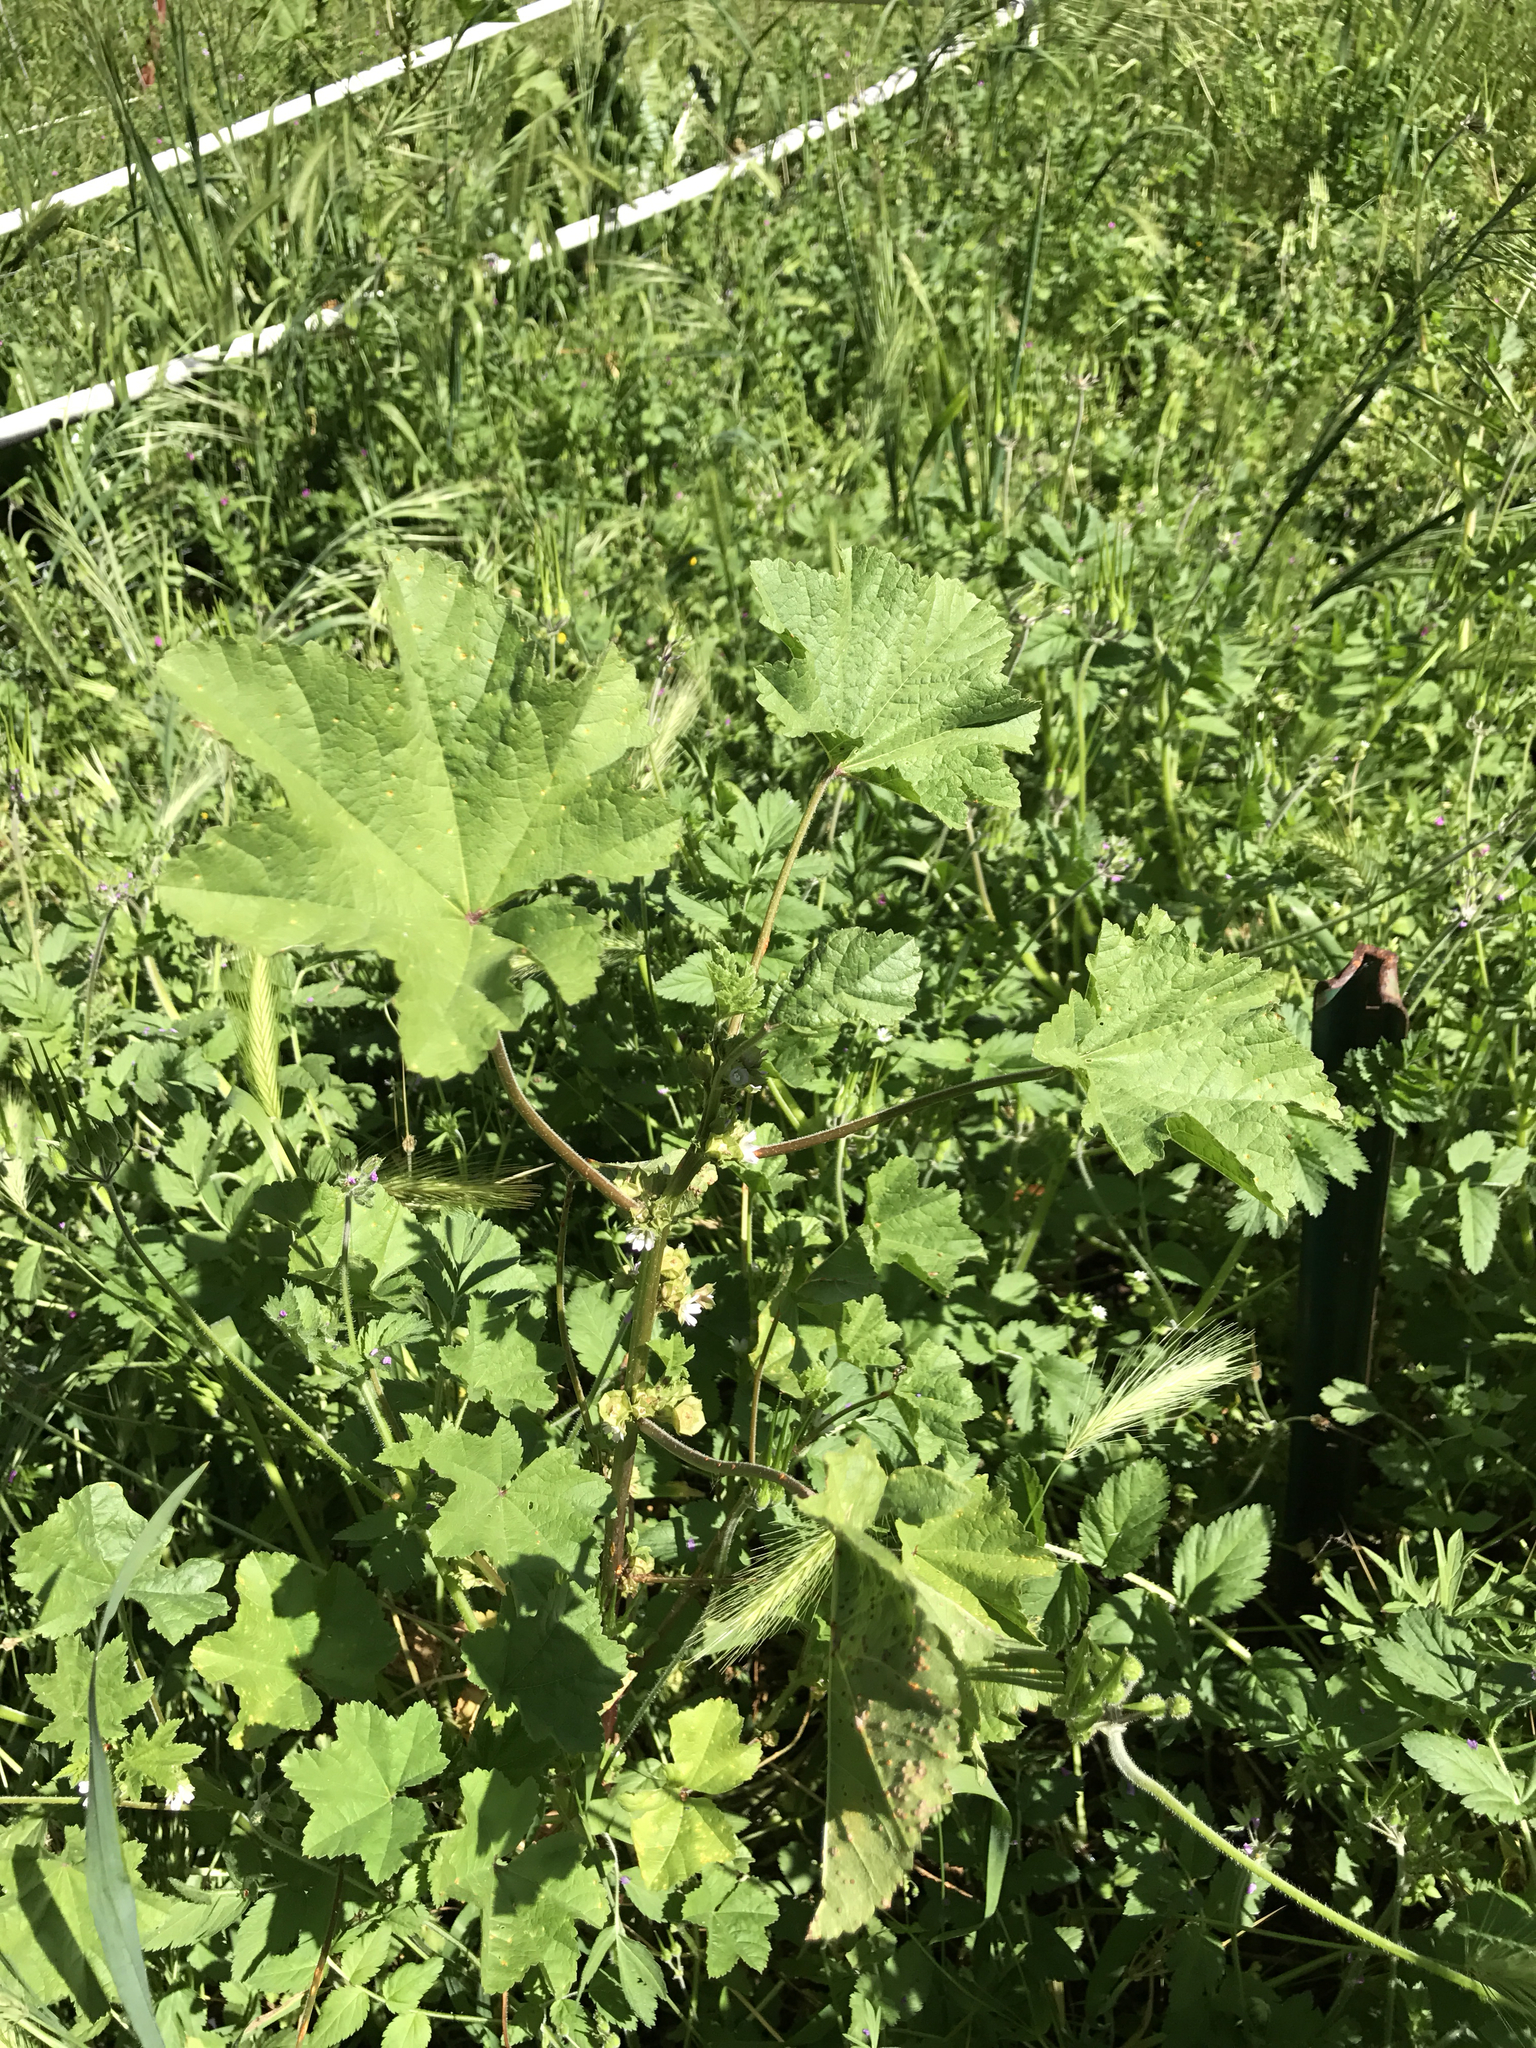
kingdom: Plantae
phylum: Tracheophyta
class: Magnoliopsida
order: Malvales
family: Malvaceae
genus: Malva
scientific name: Malva parviflora
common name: Least mallow
